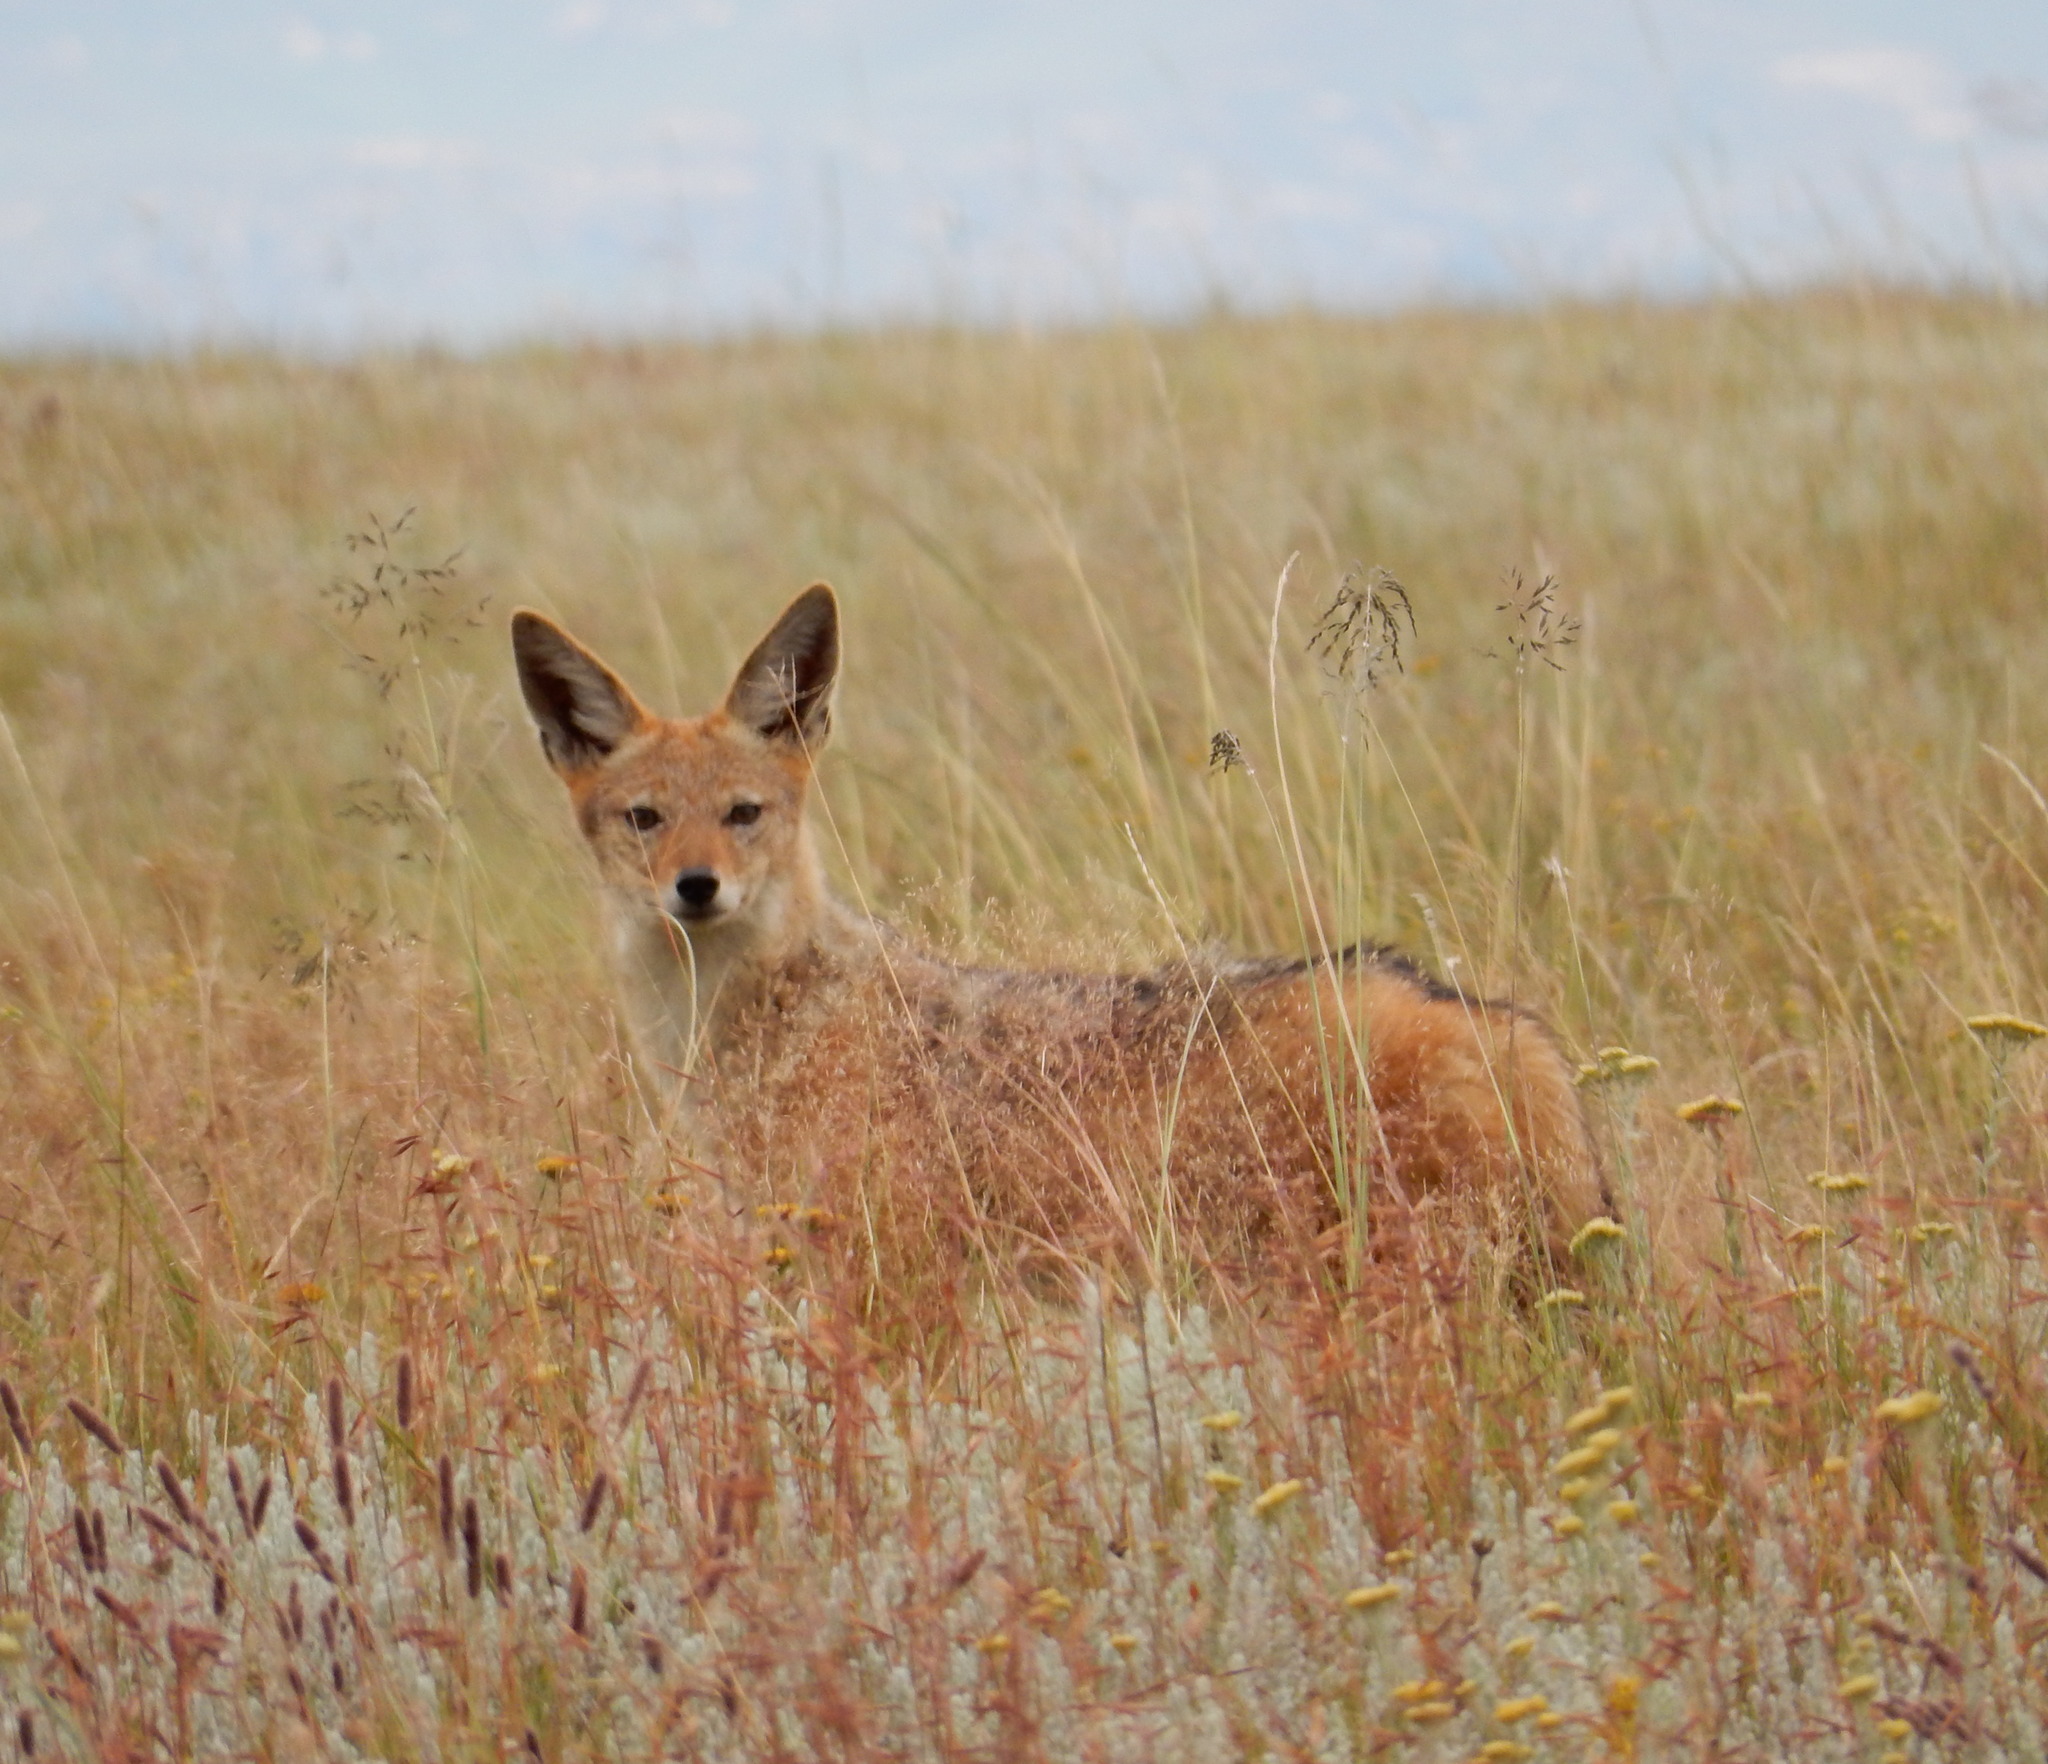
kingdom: Animalia
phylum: Chordata
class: Mammalia
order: Carnivora
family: Canidae
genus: Lupulella
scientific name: Lupulella
